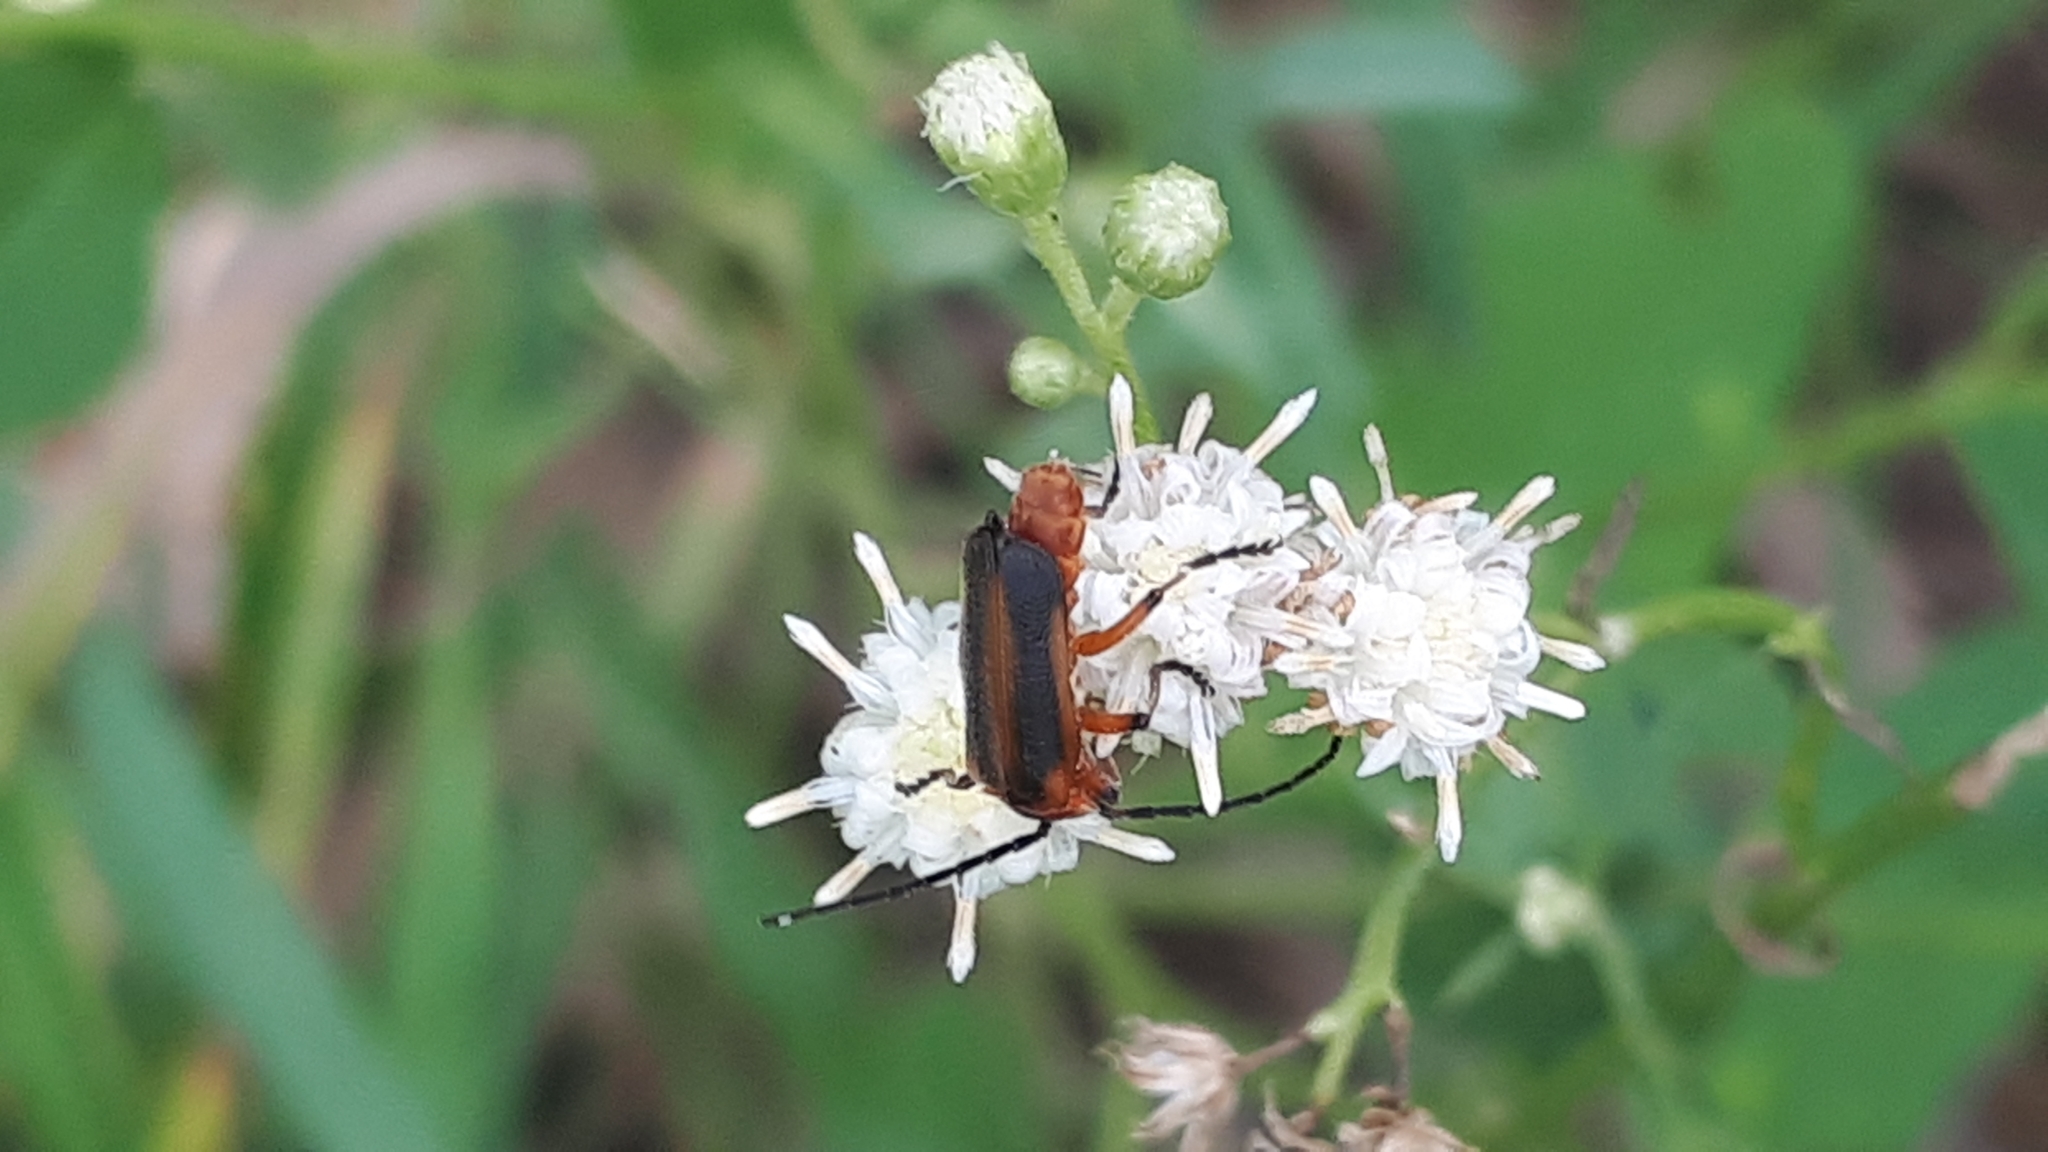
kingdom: Animalia
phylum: Arthropoda
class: Insecta
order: Coleoptera
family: Cantharidae
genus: Discodon
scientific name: Discodon
